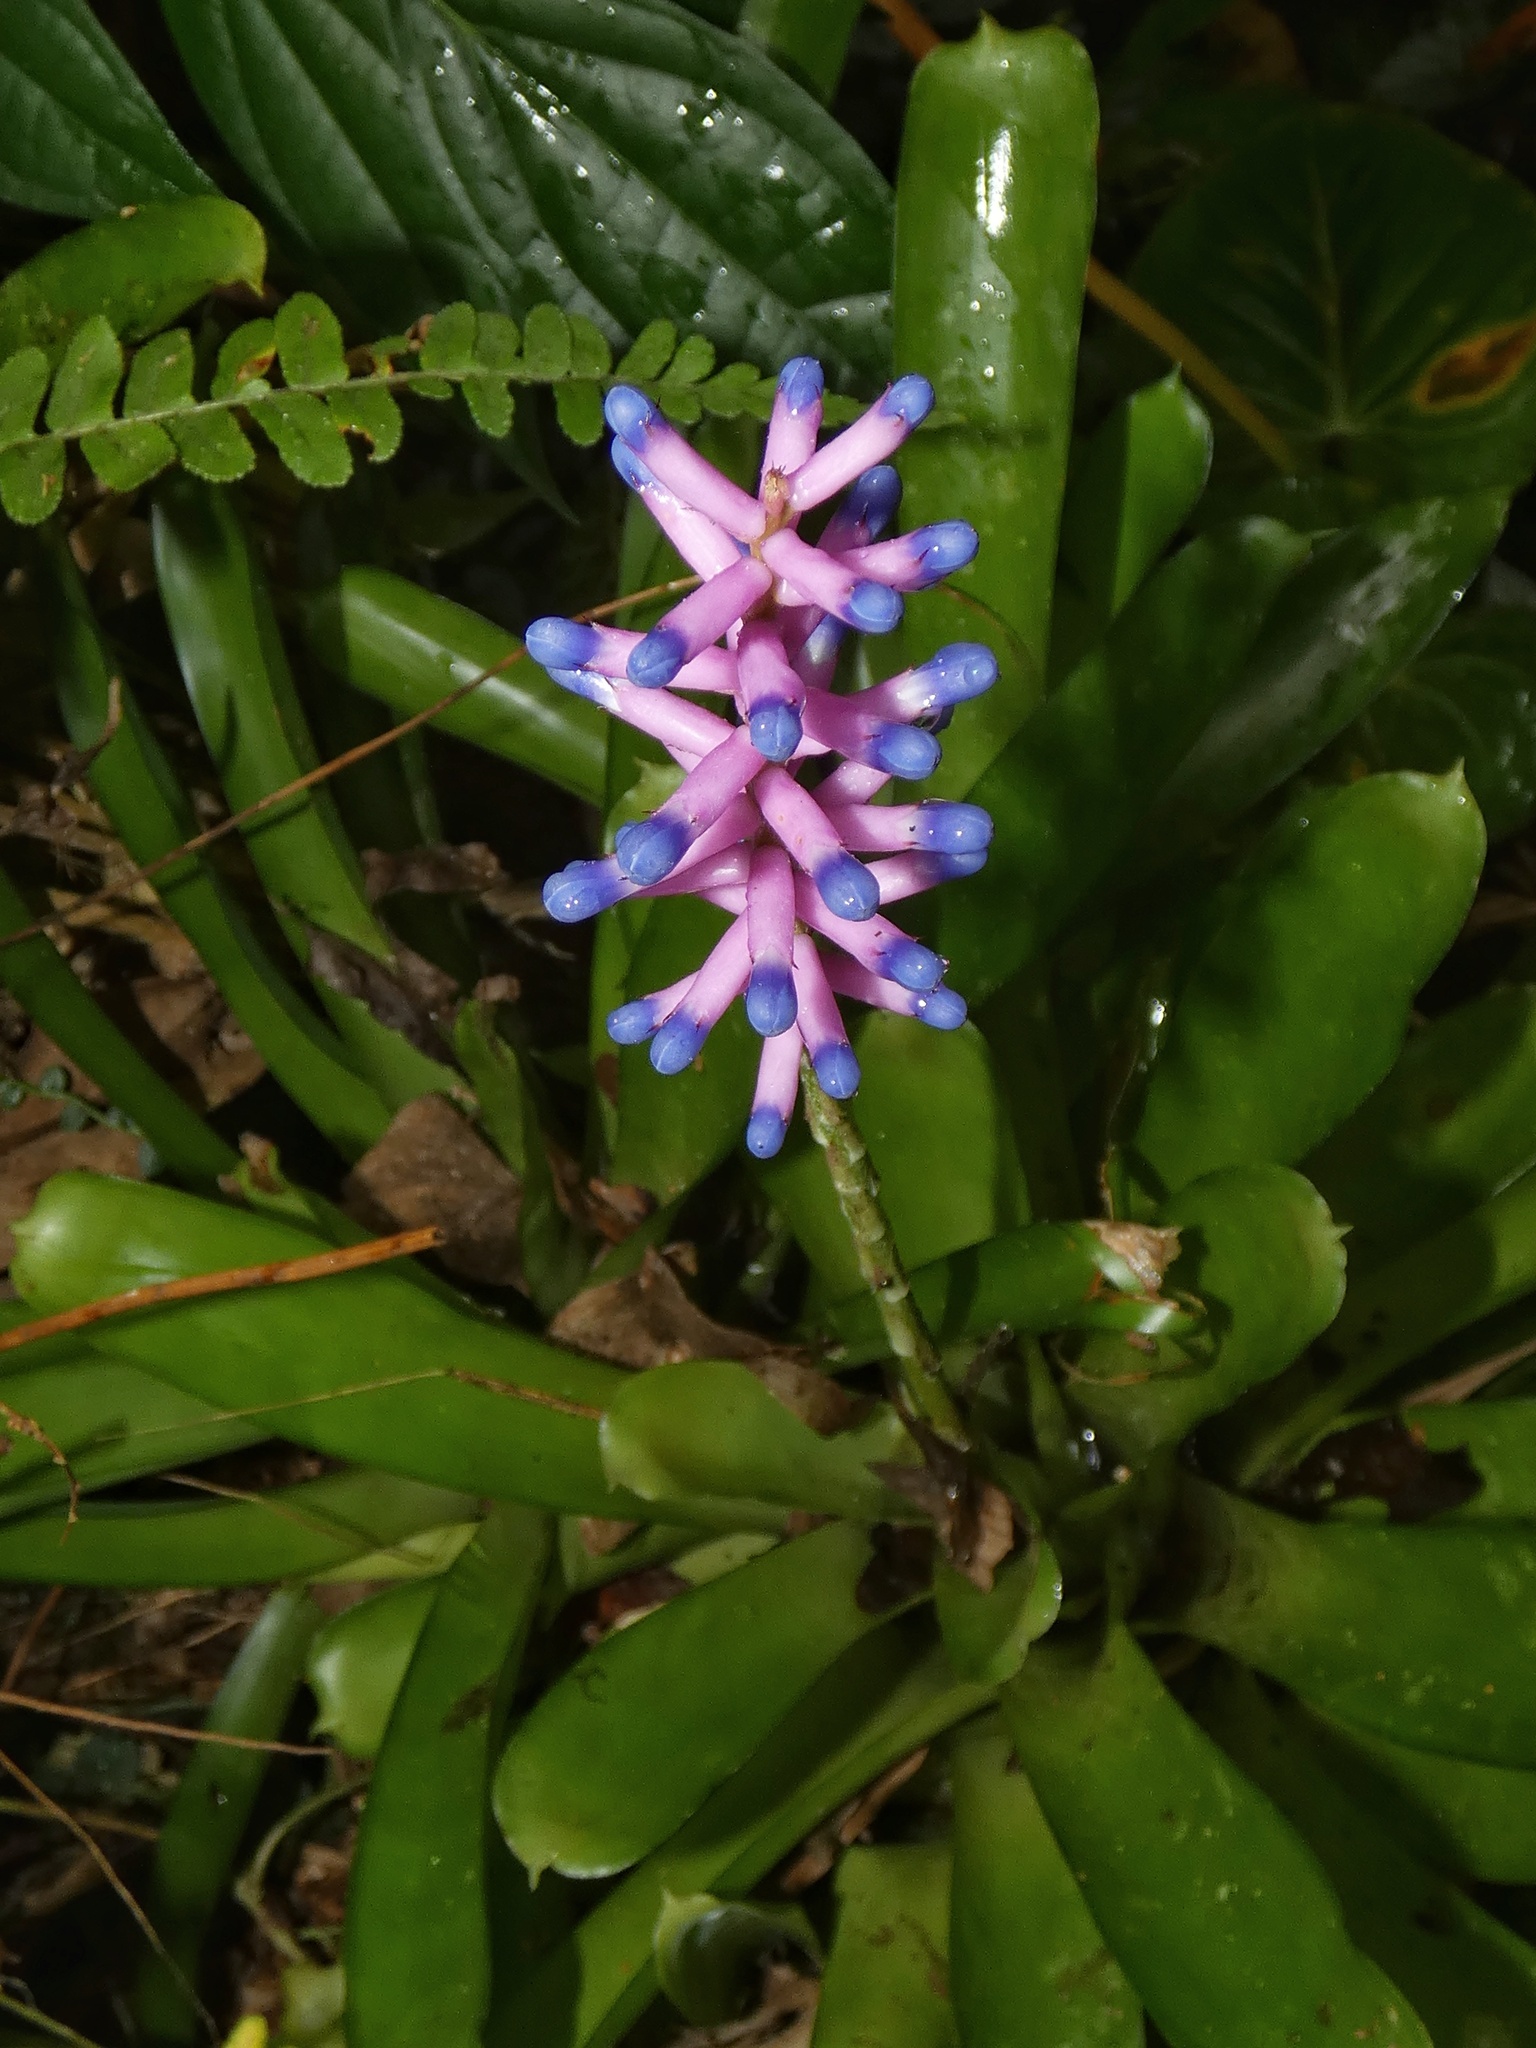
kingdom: Plantae
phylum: Tracheophyta
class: Liliopsida
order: Poales
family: Bromeliaceae
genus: Aechmea
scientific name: Aechmea gamosepala
